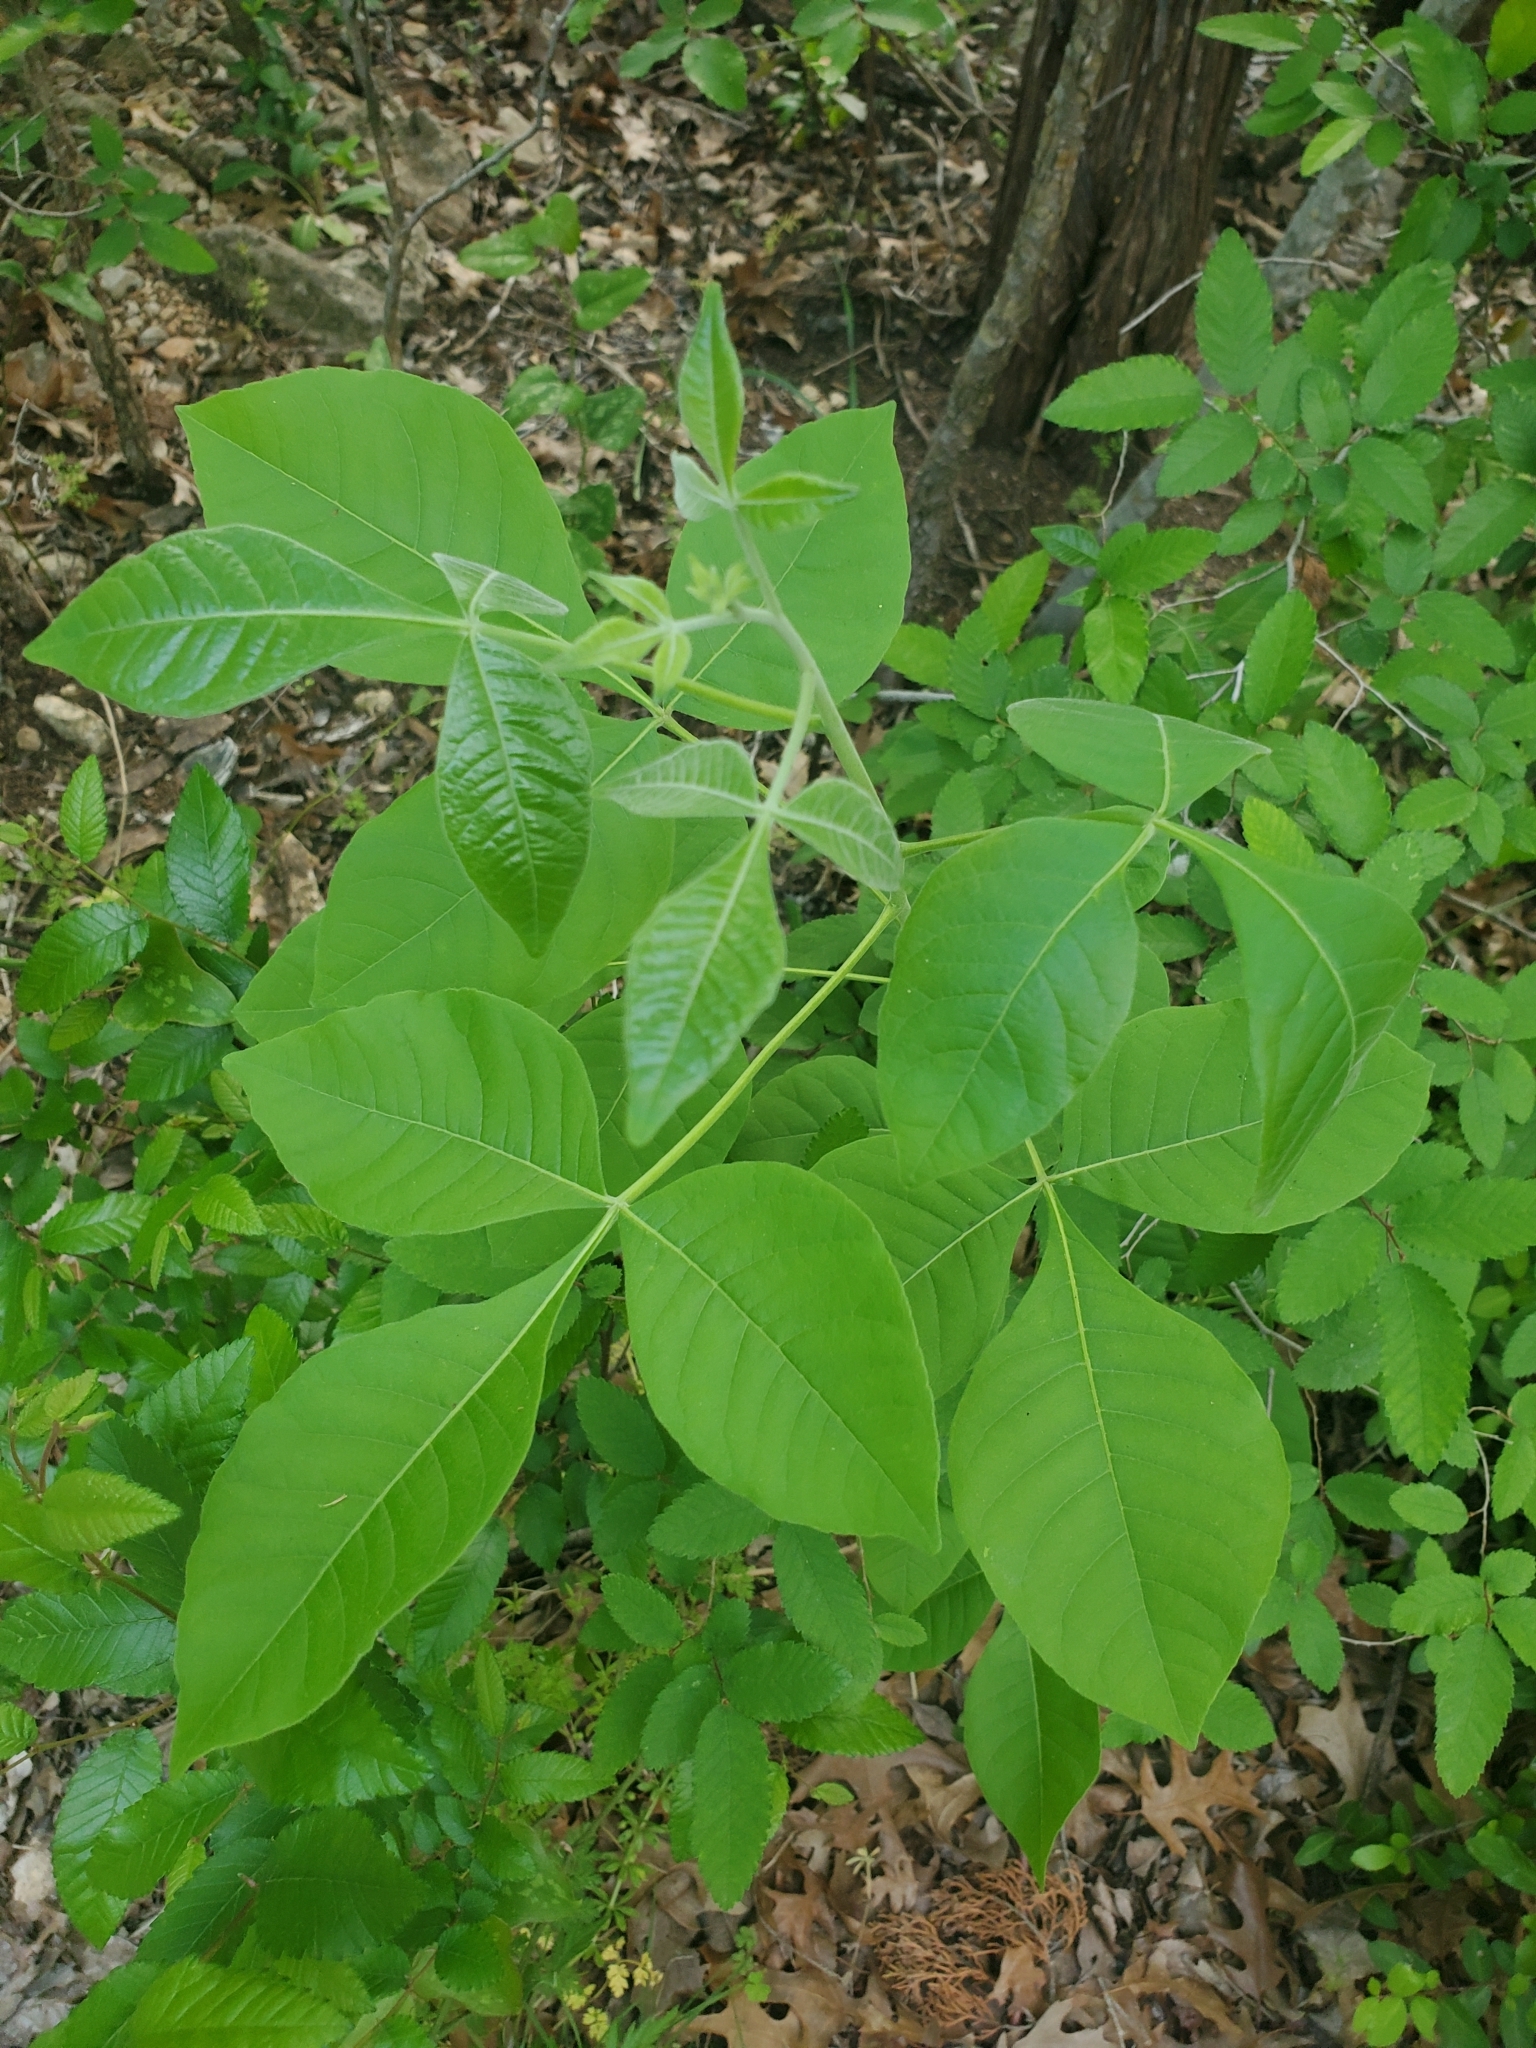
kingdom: Plantae
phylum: Tracheophyta
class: Magnoliopsida
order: Sapindales
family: Rutaceae
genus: Ptelea
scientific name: Ptelea trifoliata
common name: Common hop-tree
